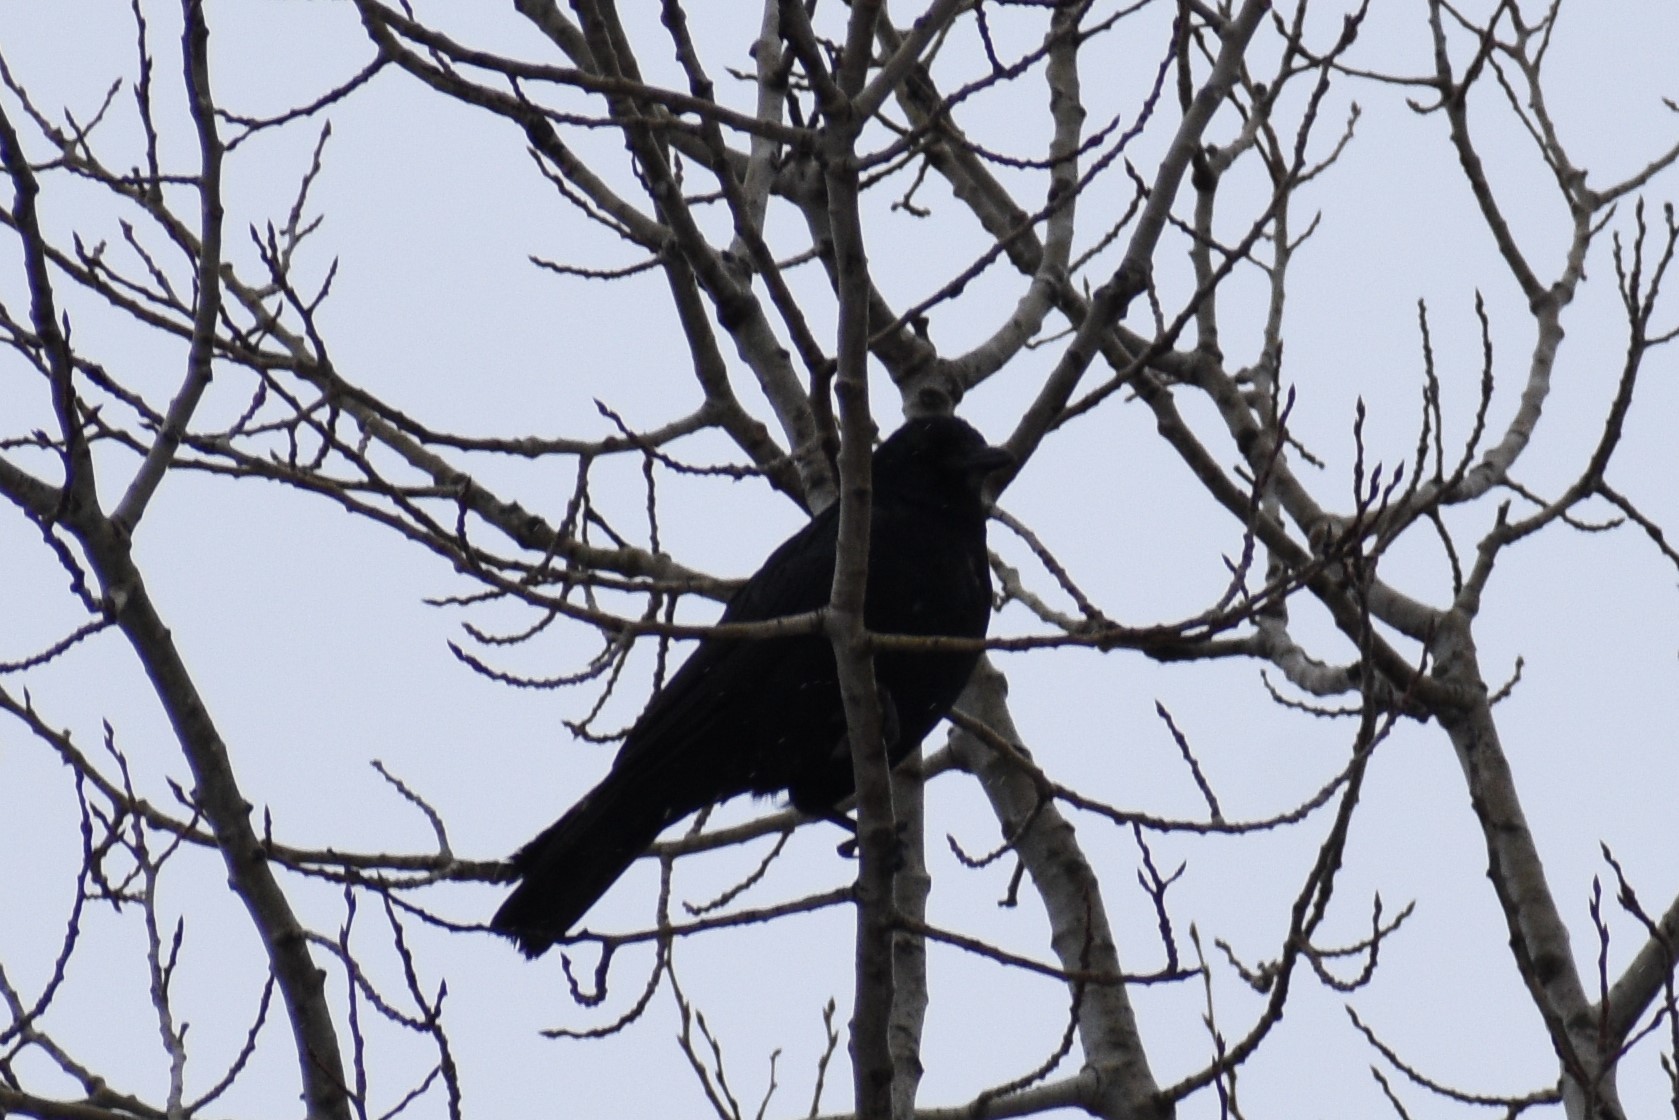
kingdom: Animalia
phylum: Chordata
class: Aves
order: Passeriformes
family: Corvidae
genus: Corvus
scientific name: Corvus brachyrhynchos
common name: American crow
